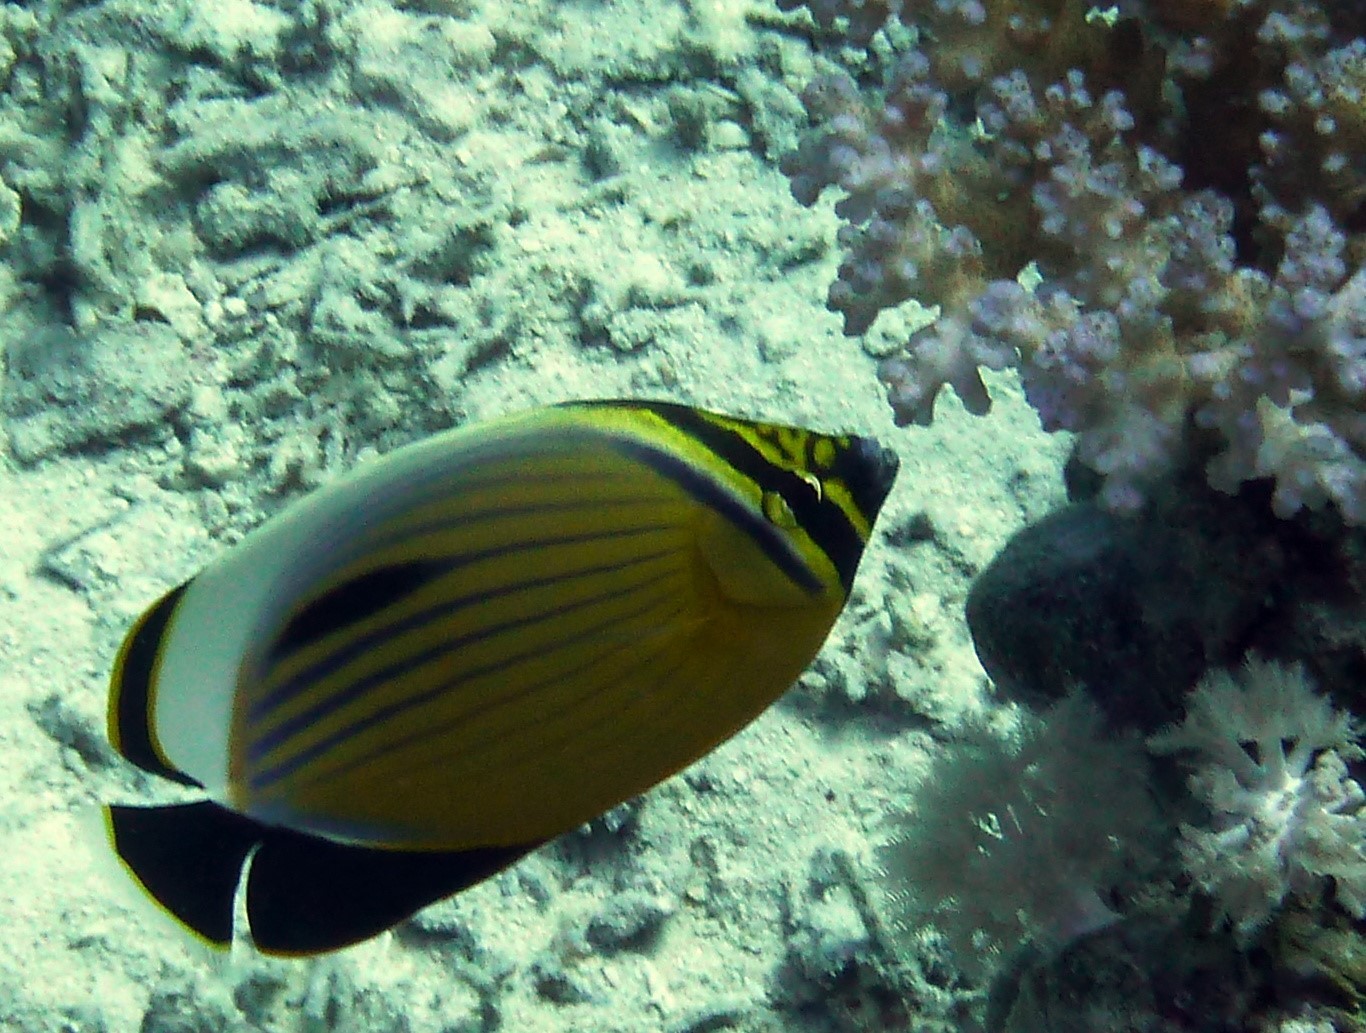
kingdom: Animalia
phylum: Chordata
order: Perciformes
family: Chaetodontidae
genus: Chaetodon
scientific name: Chaetodon austriacus
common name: Exquisite butterflyfish
